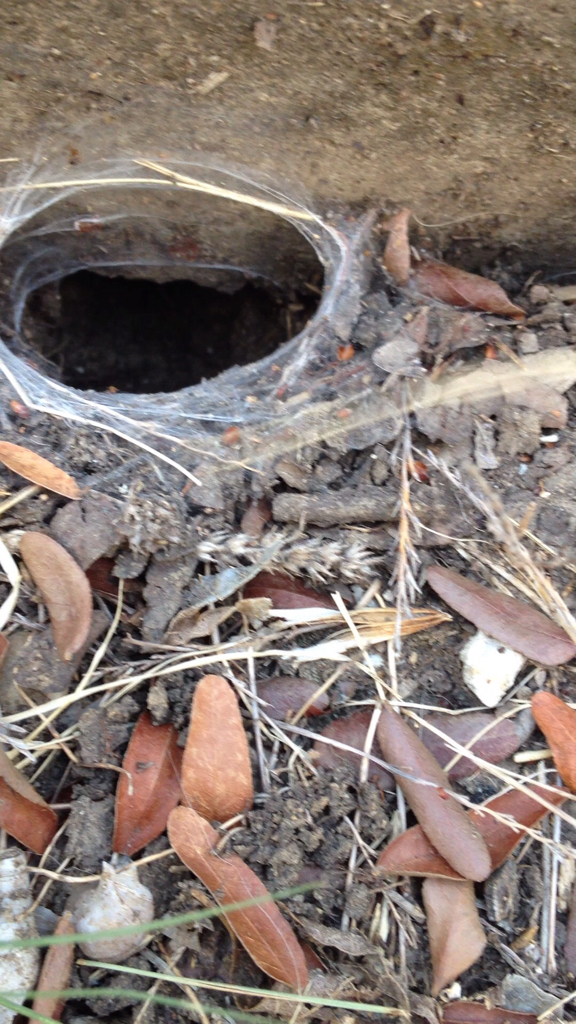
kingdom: Animalia
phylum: Arthropoda
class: Arachnida
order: Araneae
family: Theraphosidae
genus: Aphonopelma
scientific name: Aphonopelma hentzi
